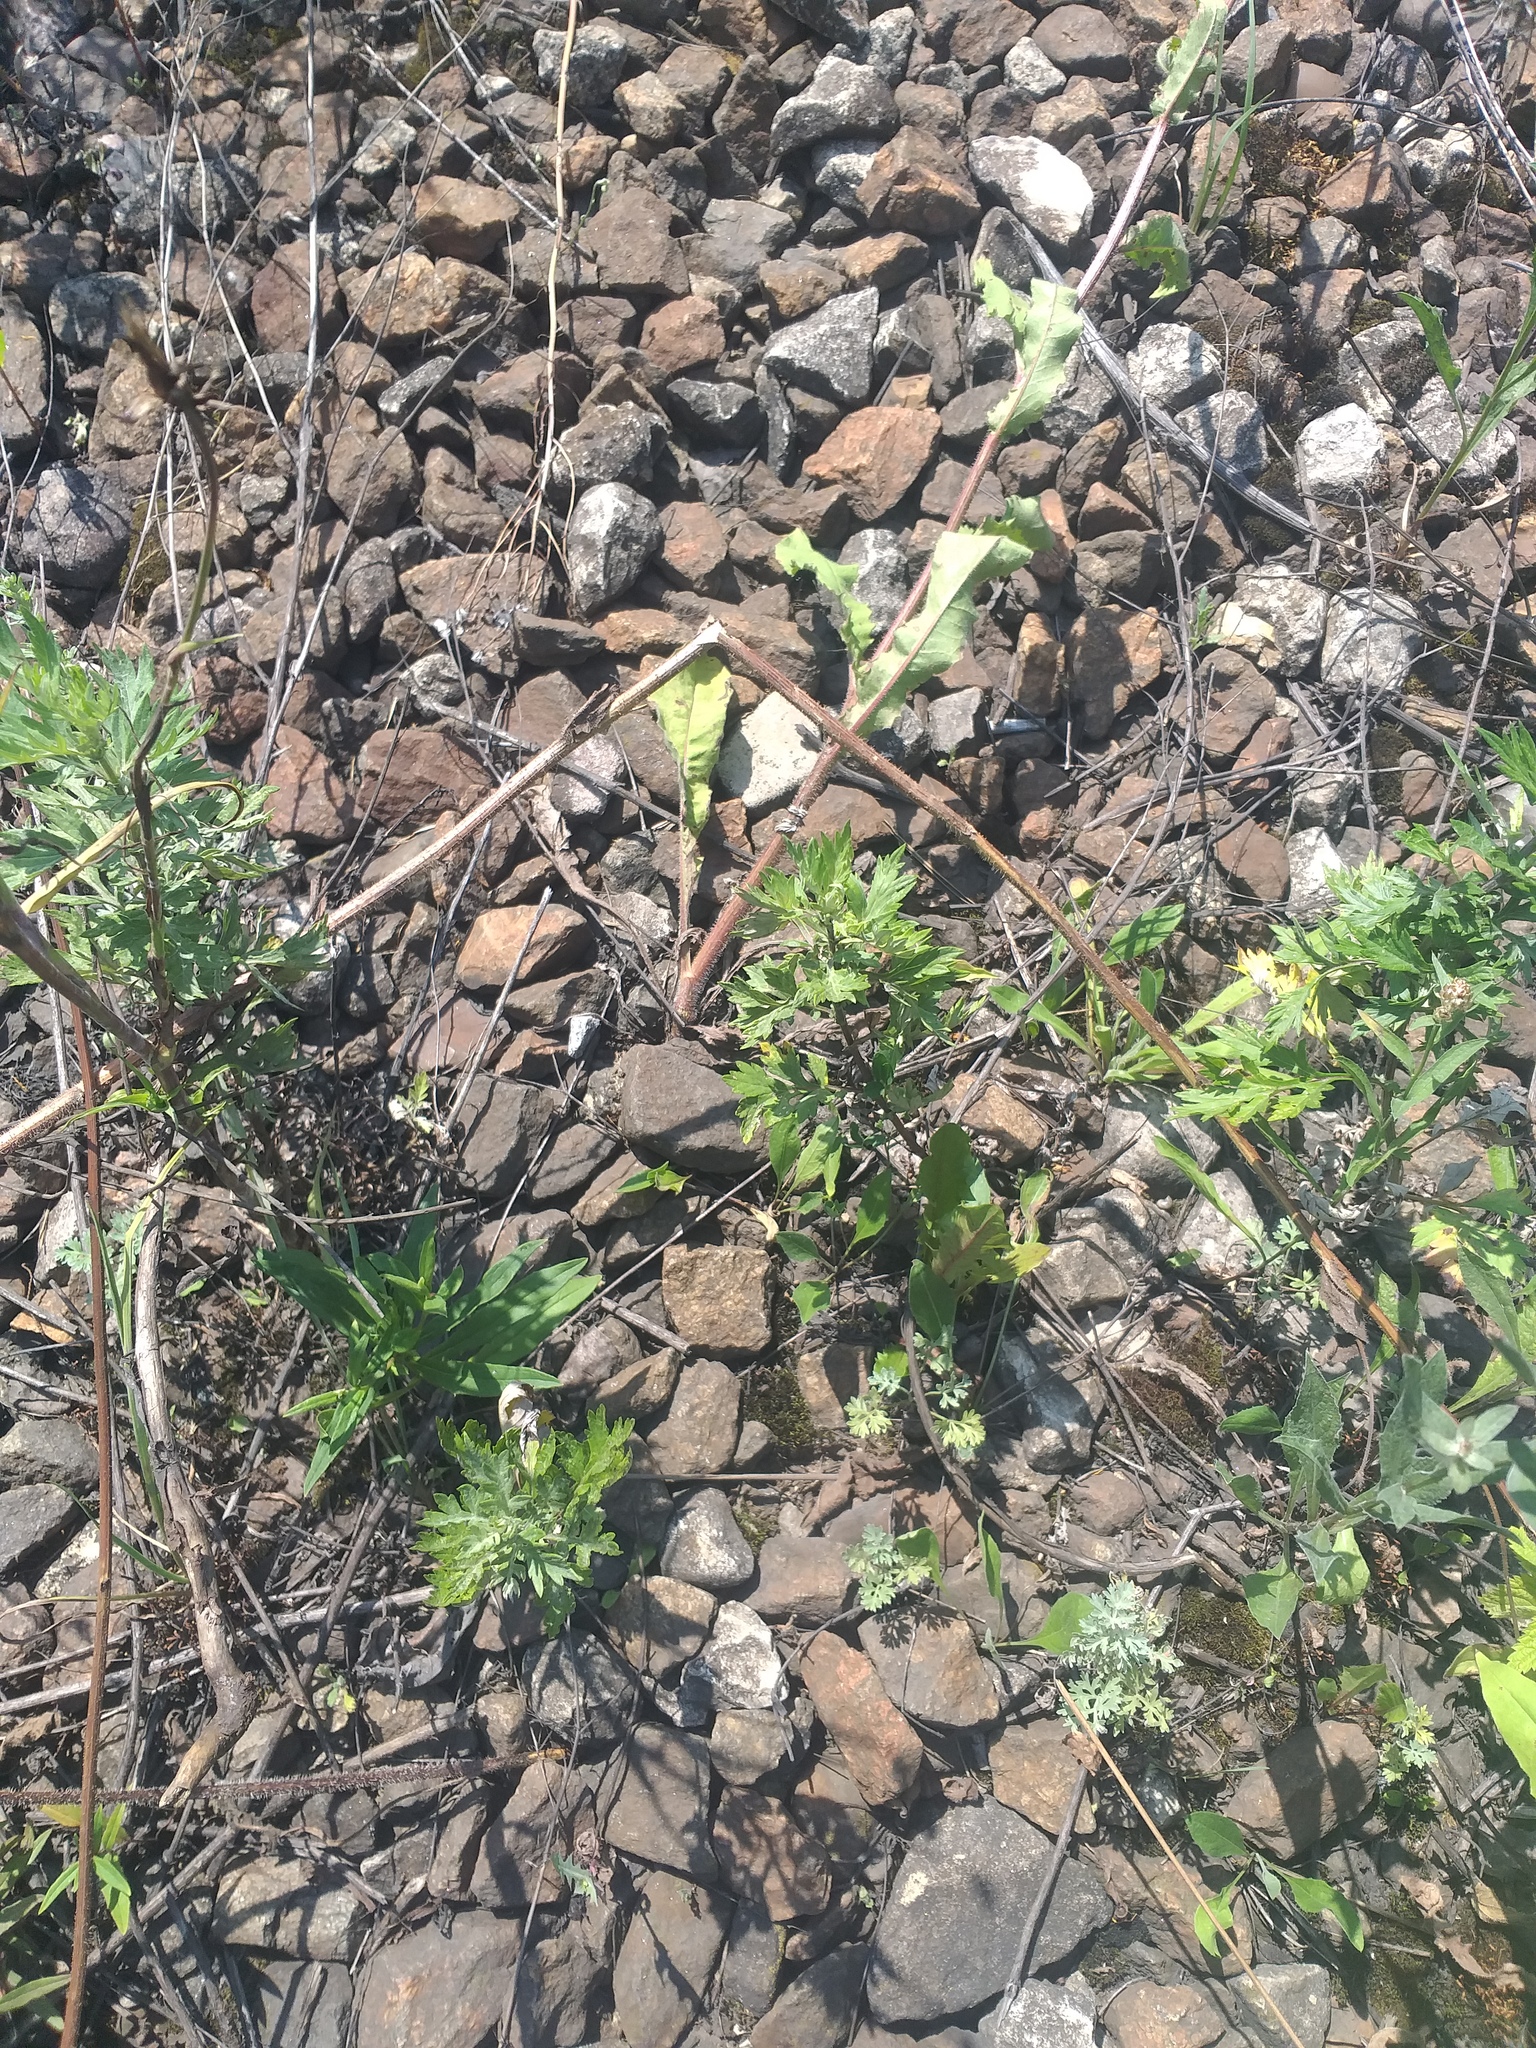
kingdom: Plantae
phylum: Tracheophyta
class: Magnoliopsida
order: Asterales
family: Asteraceae
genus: Artemisia
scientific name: Artemisia vulgaris
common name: Mugwort
